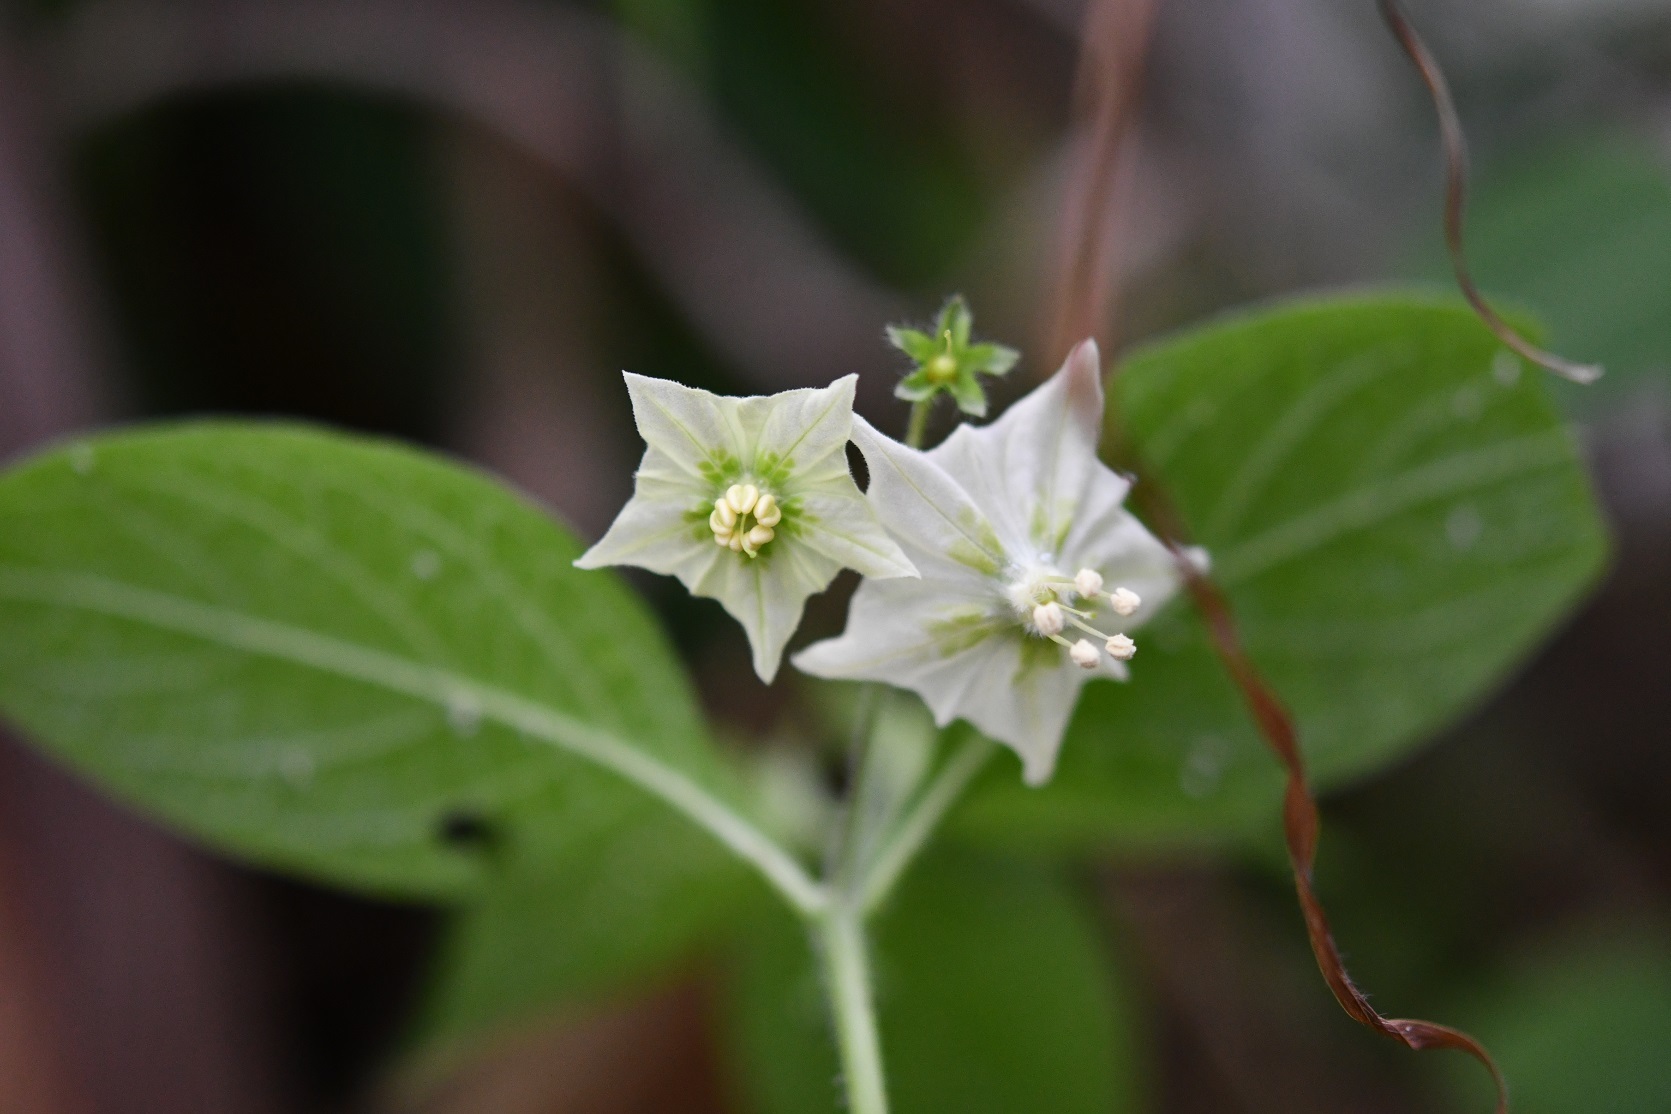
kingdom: Plantae
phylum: Tracheophyta
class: Magnoliopsida
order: Solanales
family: Solanaceae
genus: Jaltomata
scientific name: Jaltomata procumbens
